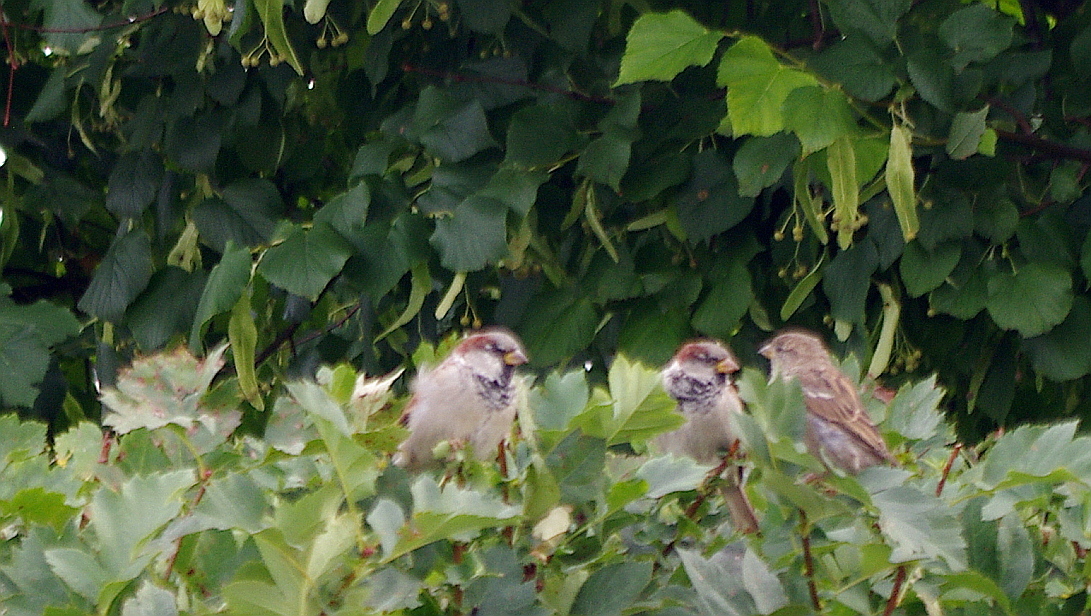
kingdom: Animalia
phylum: Chordata
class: Aves
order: Passeriformes
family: Passeridae
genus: Passer
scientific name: Passer domesticus
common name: House sparrow
